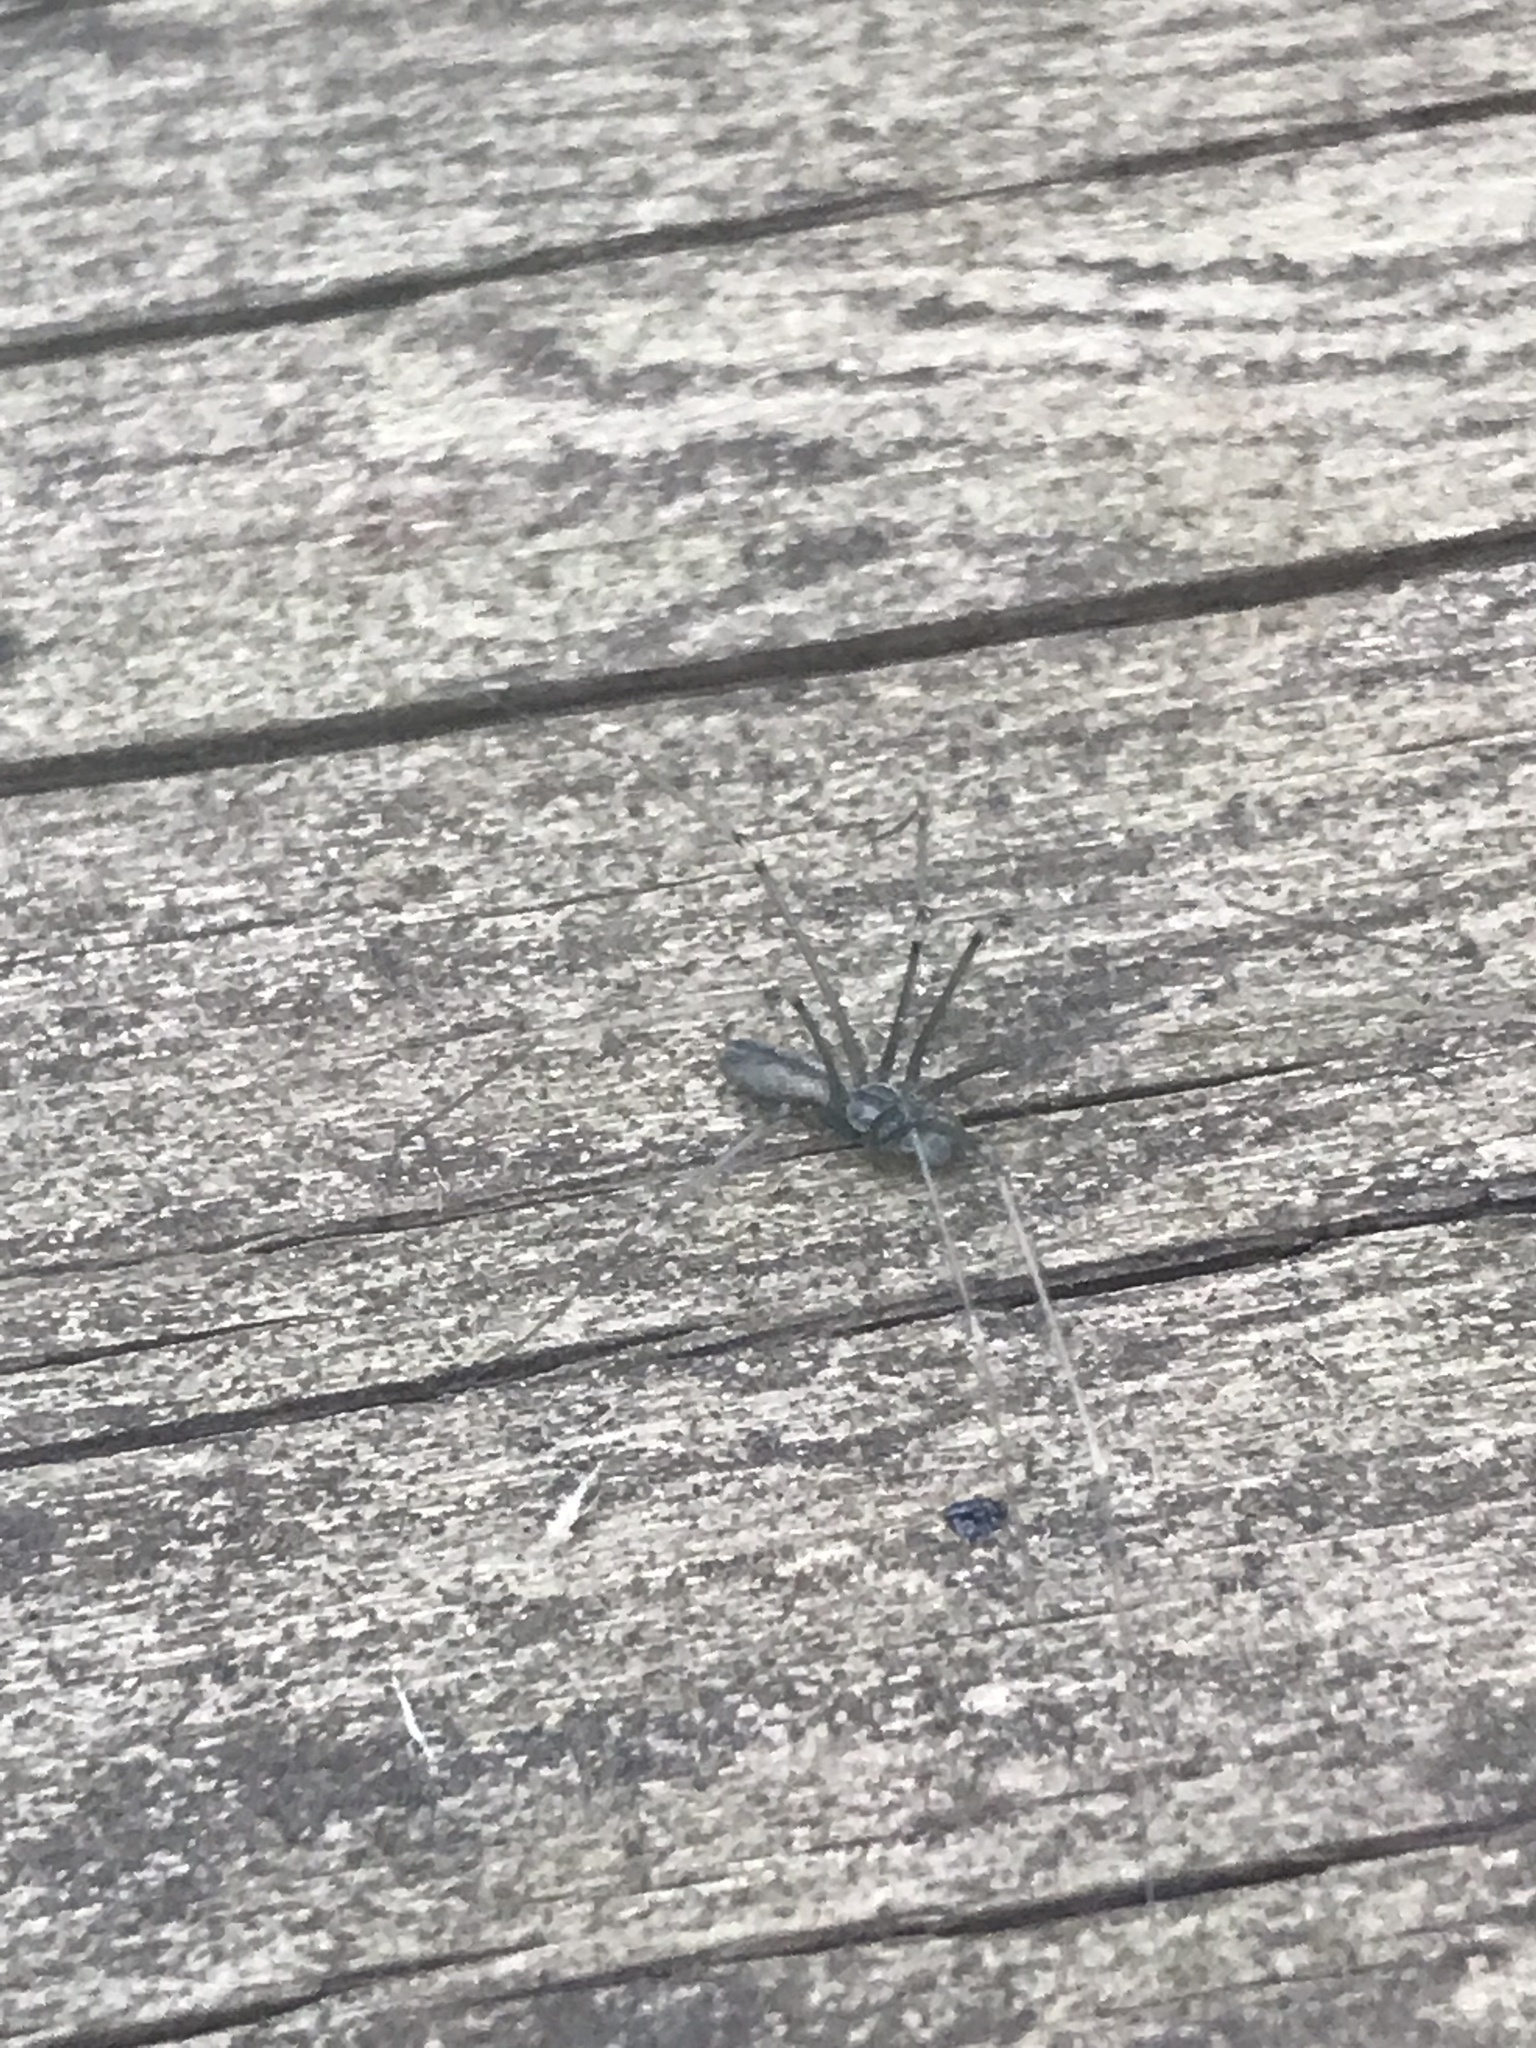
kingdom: Animalia
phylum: Arthropoda
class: Arachnida
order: Araneae
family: Pholcidae
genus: Pholcus
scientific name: Pholcus opilionoides
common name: Daddylongleg spider
